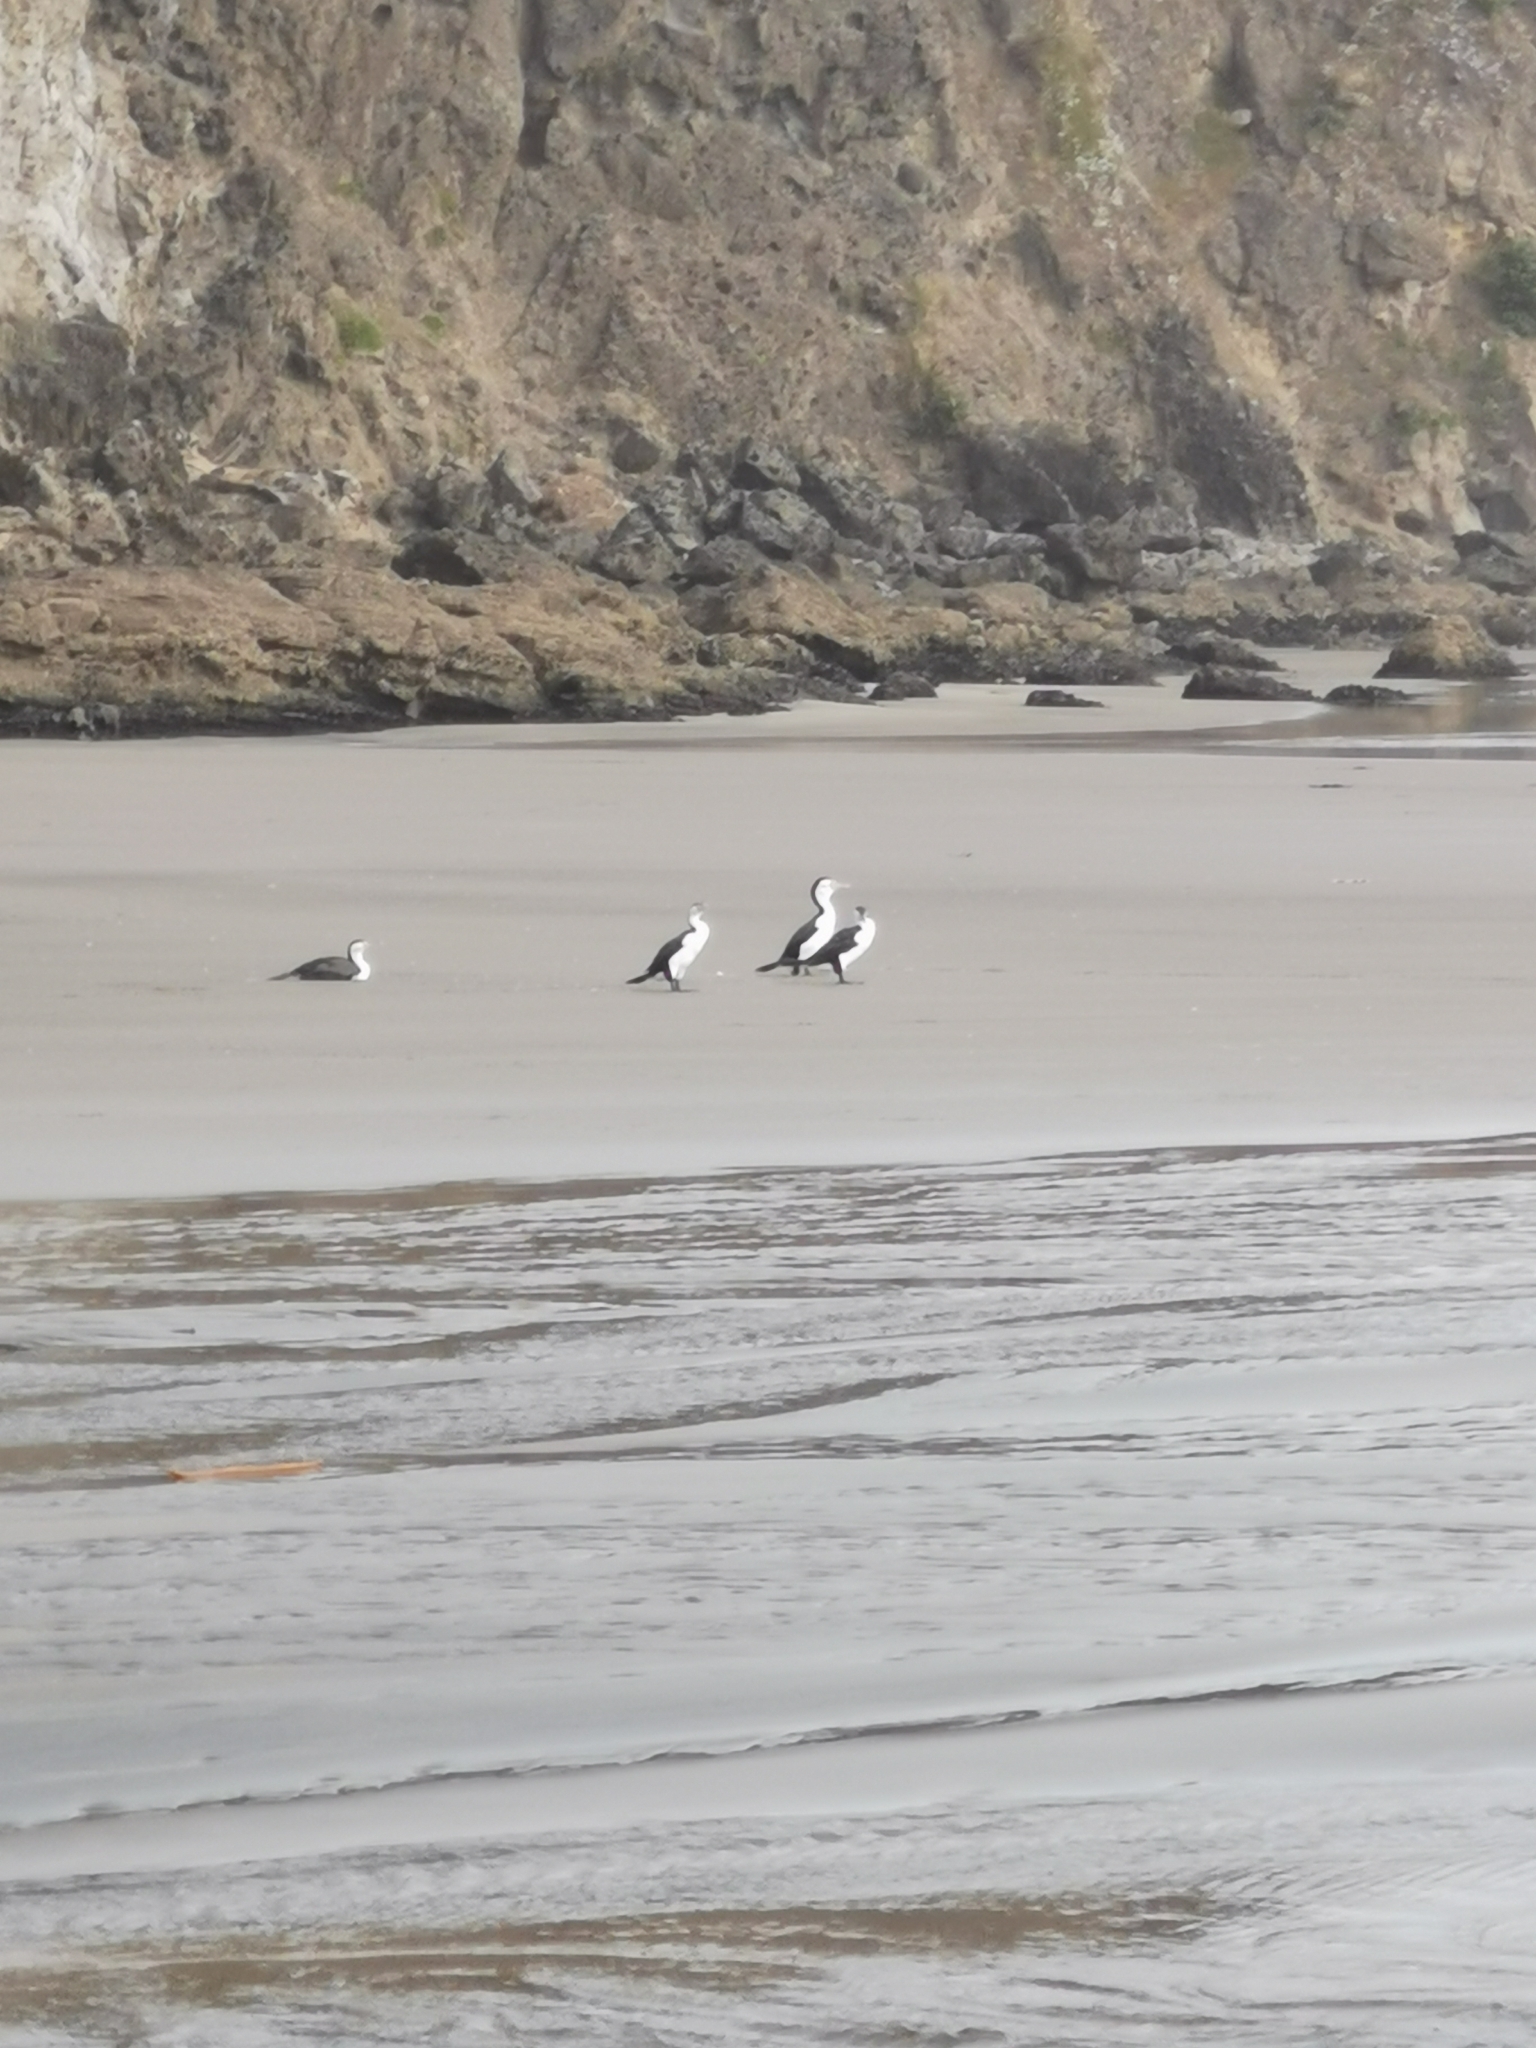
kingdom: Animalia
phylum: Chordata
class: Aves
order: Suliformes
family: Phalacrocoracidae
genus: Phalacrocorax
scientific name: Phalacrocorax varius
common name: Pied cormorant
